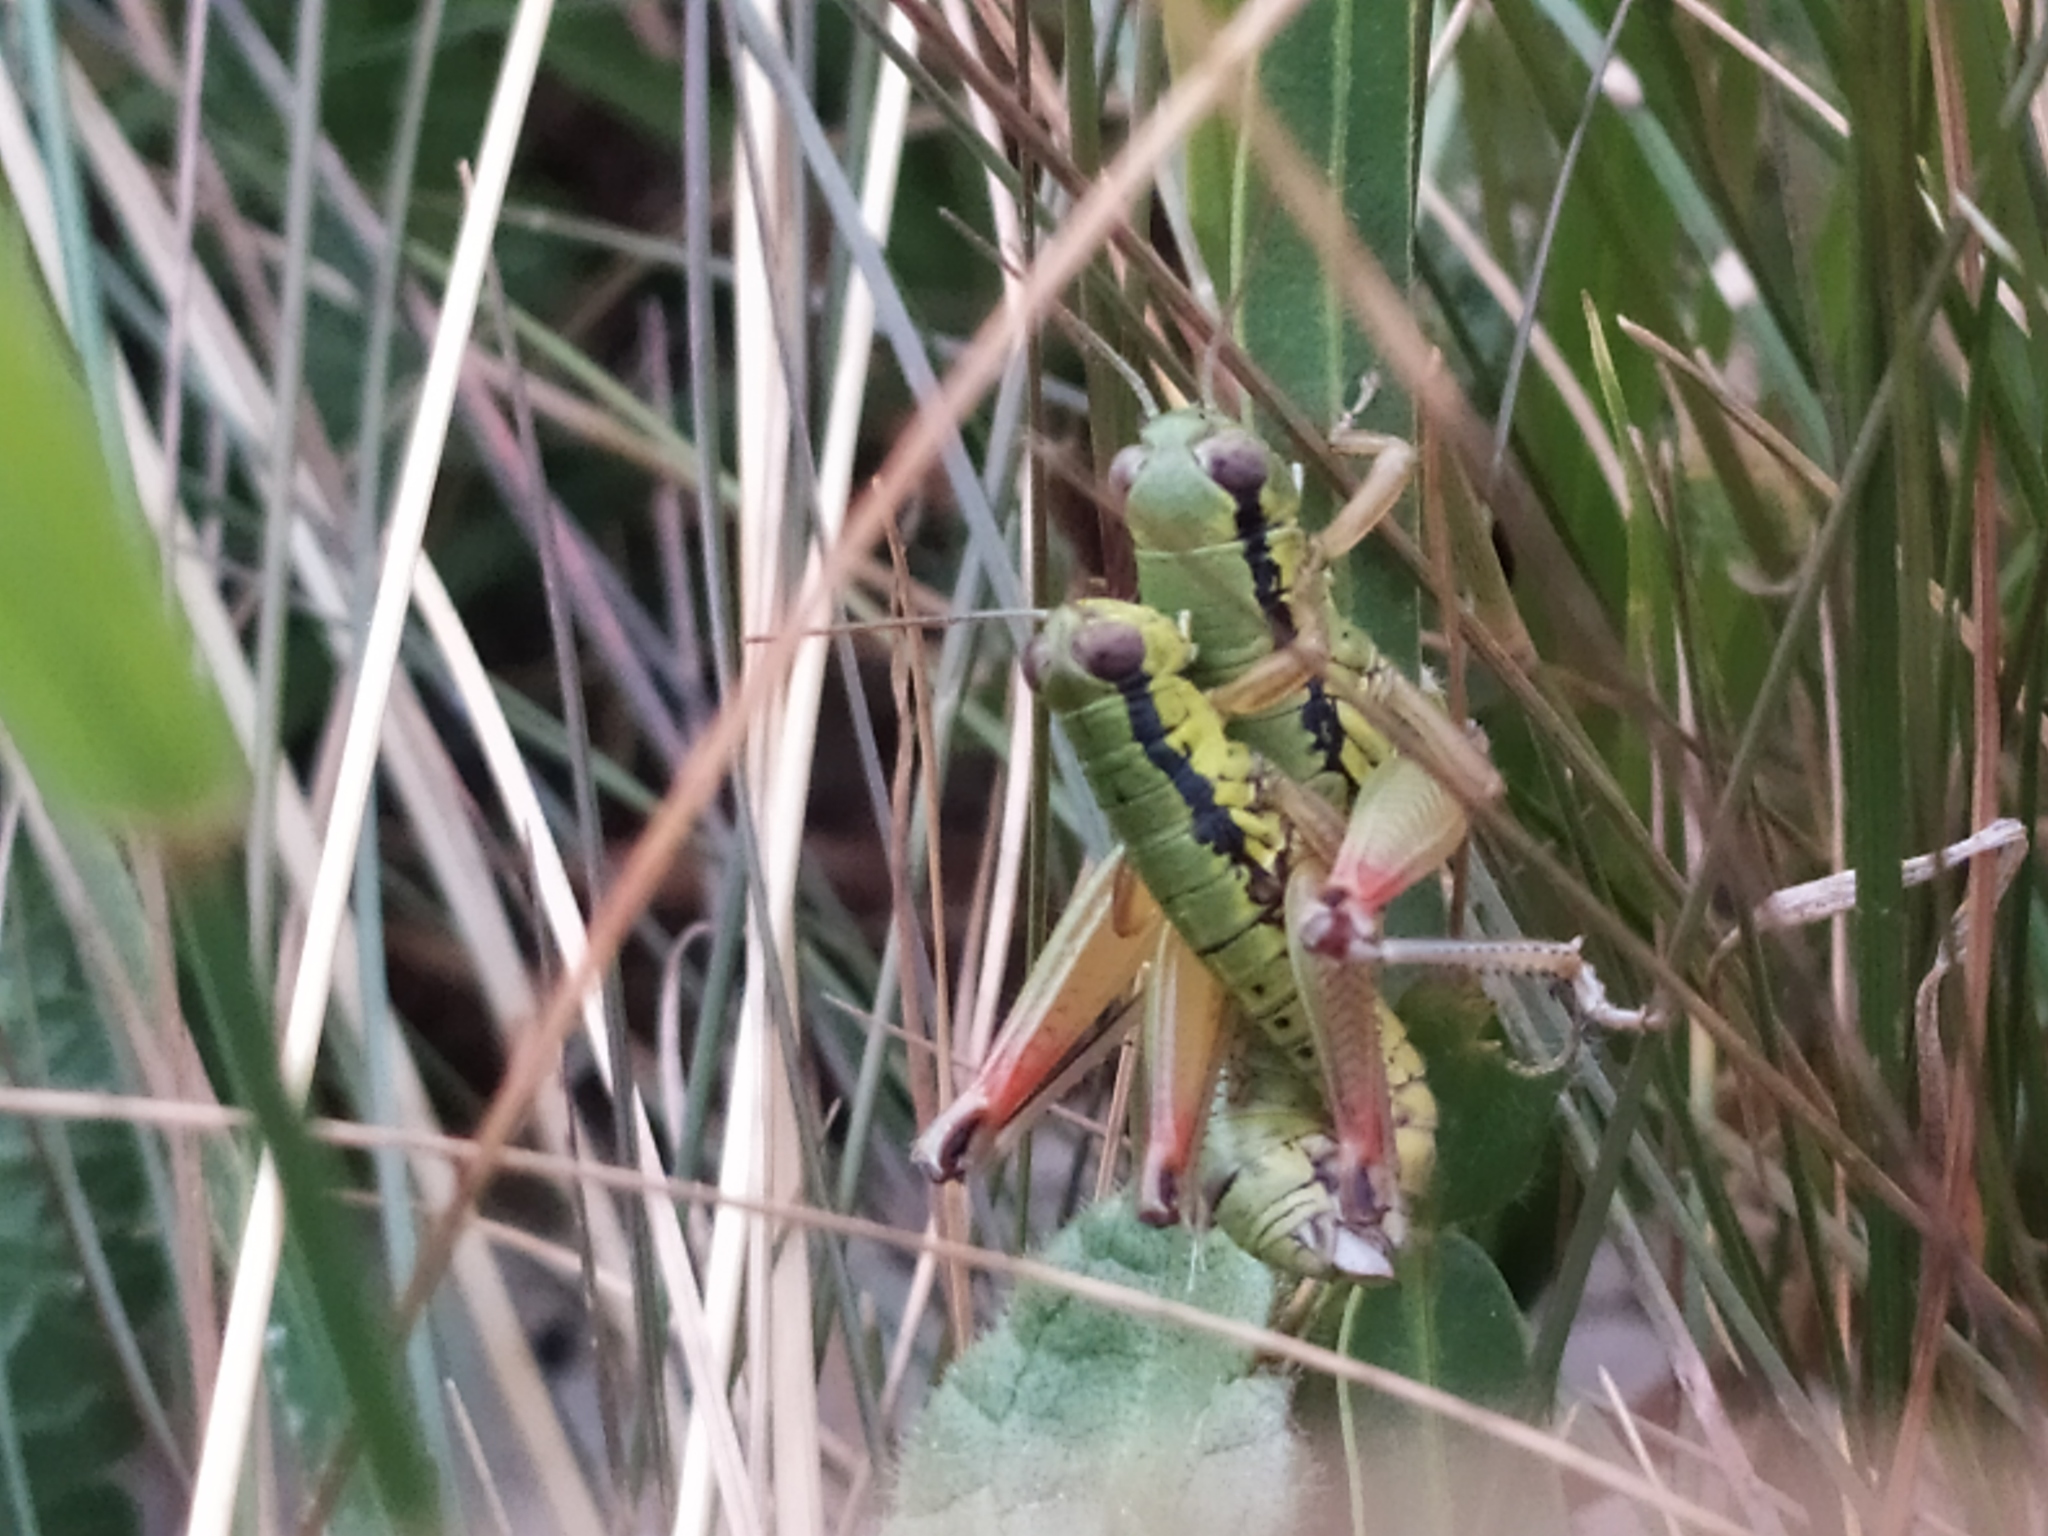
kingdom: Animalia
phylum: Arthropoda
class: Insecta
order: Orthoptera
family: Acrididae
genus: Micropodisma
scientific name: Micropodisma salamandra
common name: Foothill mountain grasshopper
